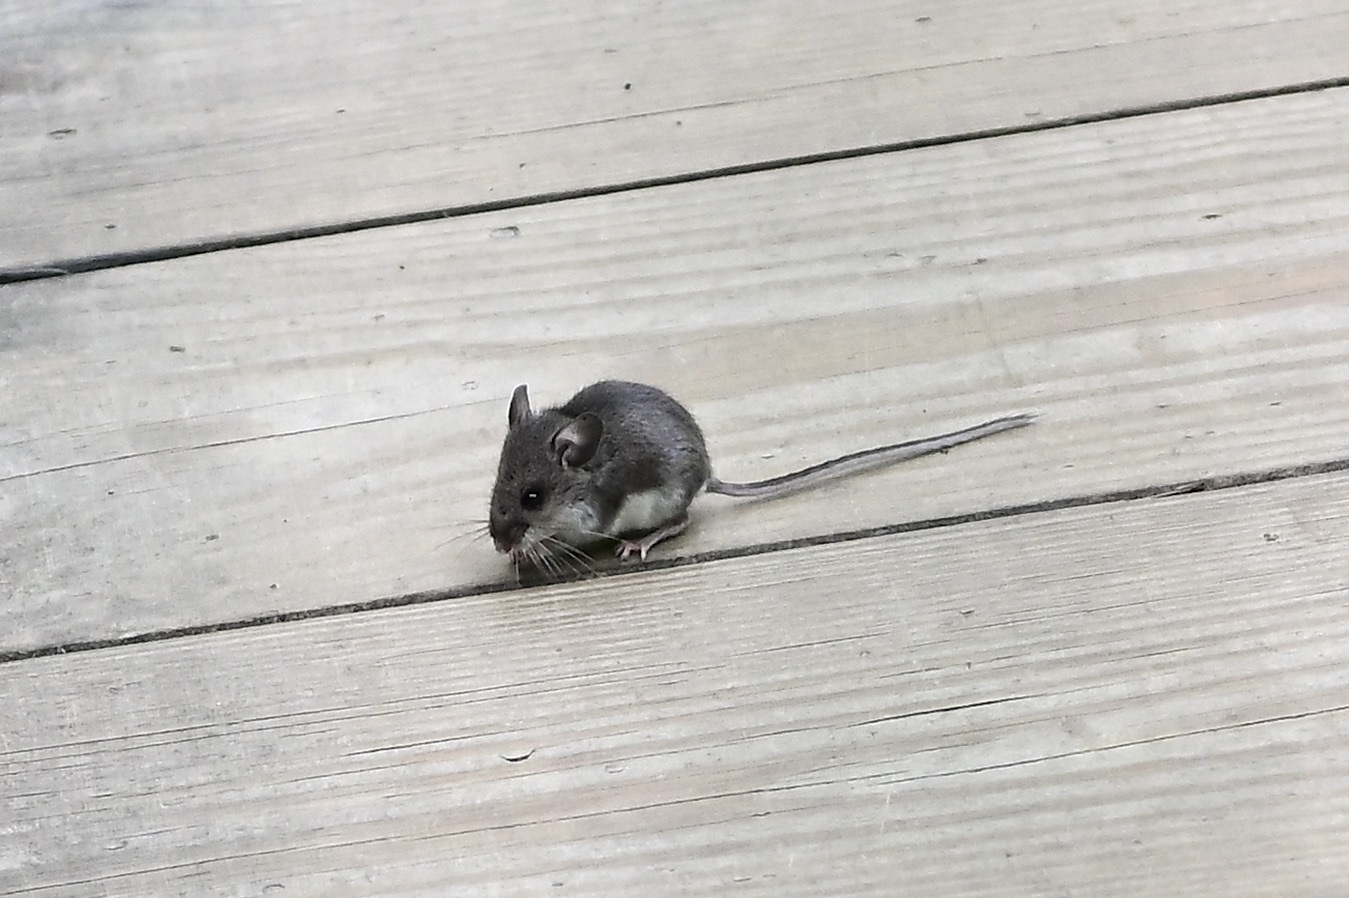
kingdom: Animalia
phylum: Chordata
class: Mammalia
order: Rodentia
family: Cricetidae
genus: Peromyscus
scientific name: Peromyscus maniculatus
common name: Deer mouse
